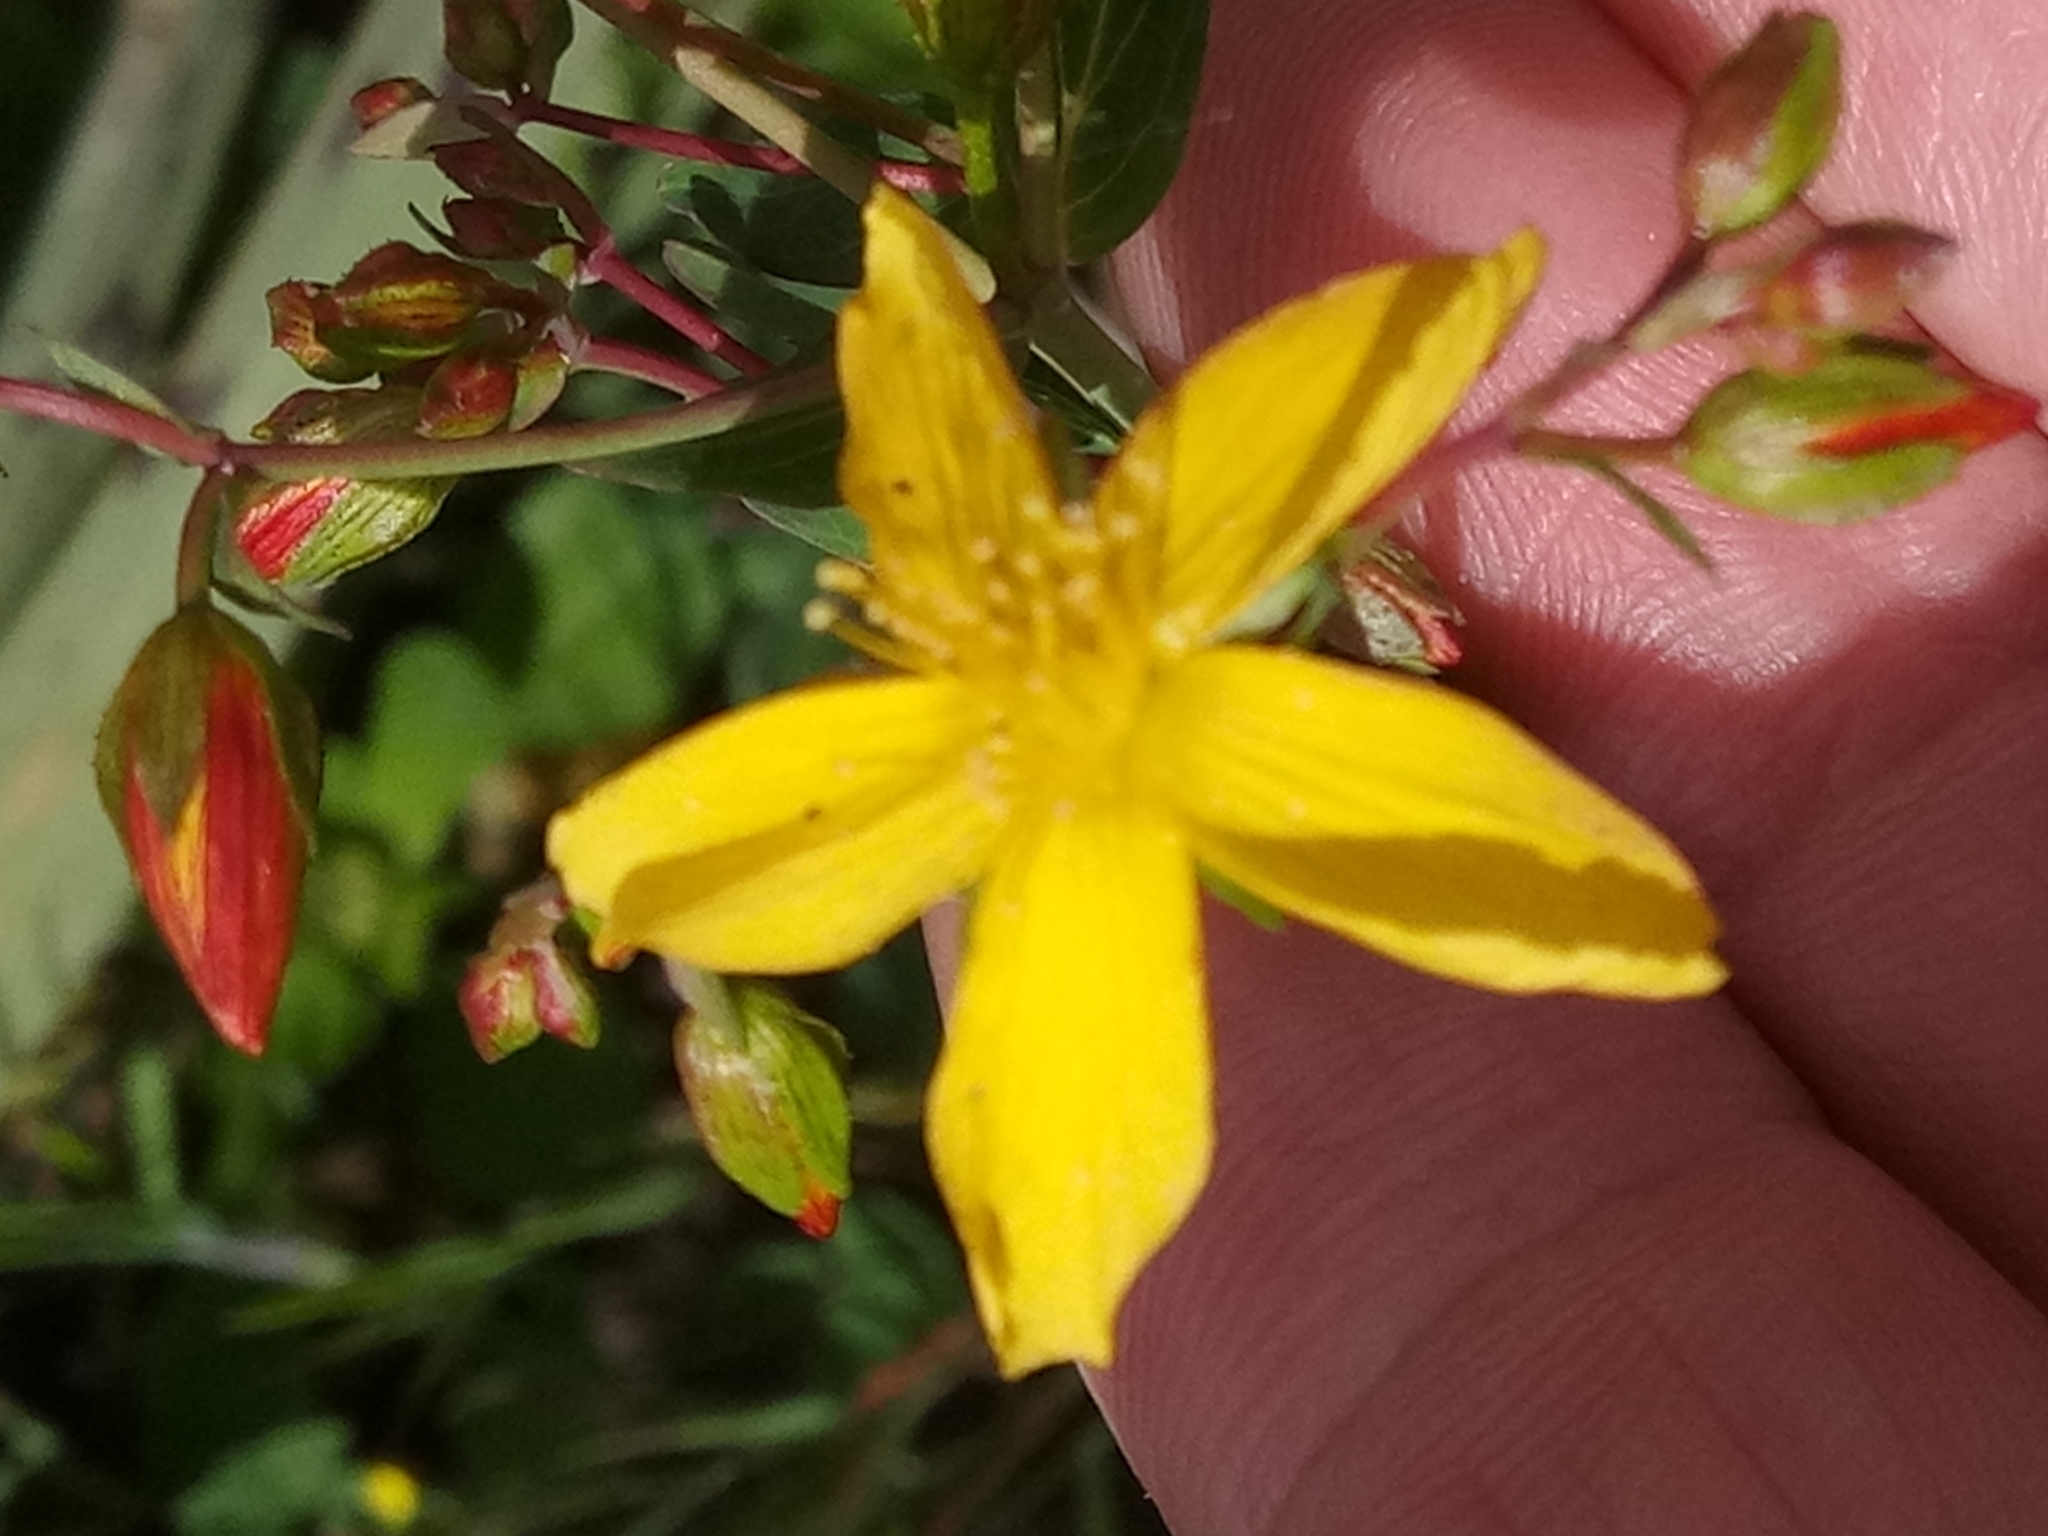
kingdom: Plantae
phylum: Tracheophyta
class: Magnoliopsida
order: Malpighiales
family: Hypericaceae
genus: Hypericum
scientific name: Hypericum australe
